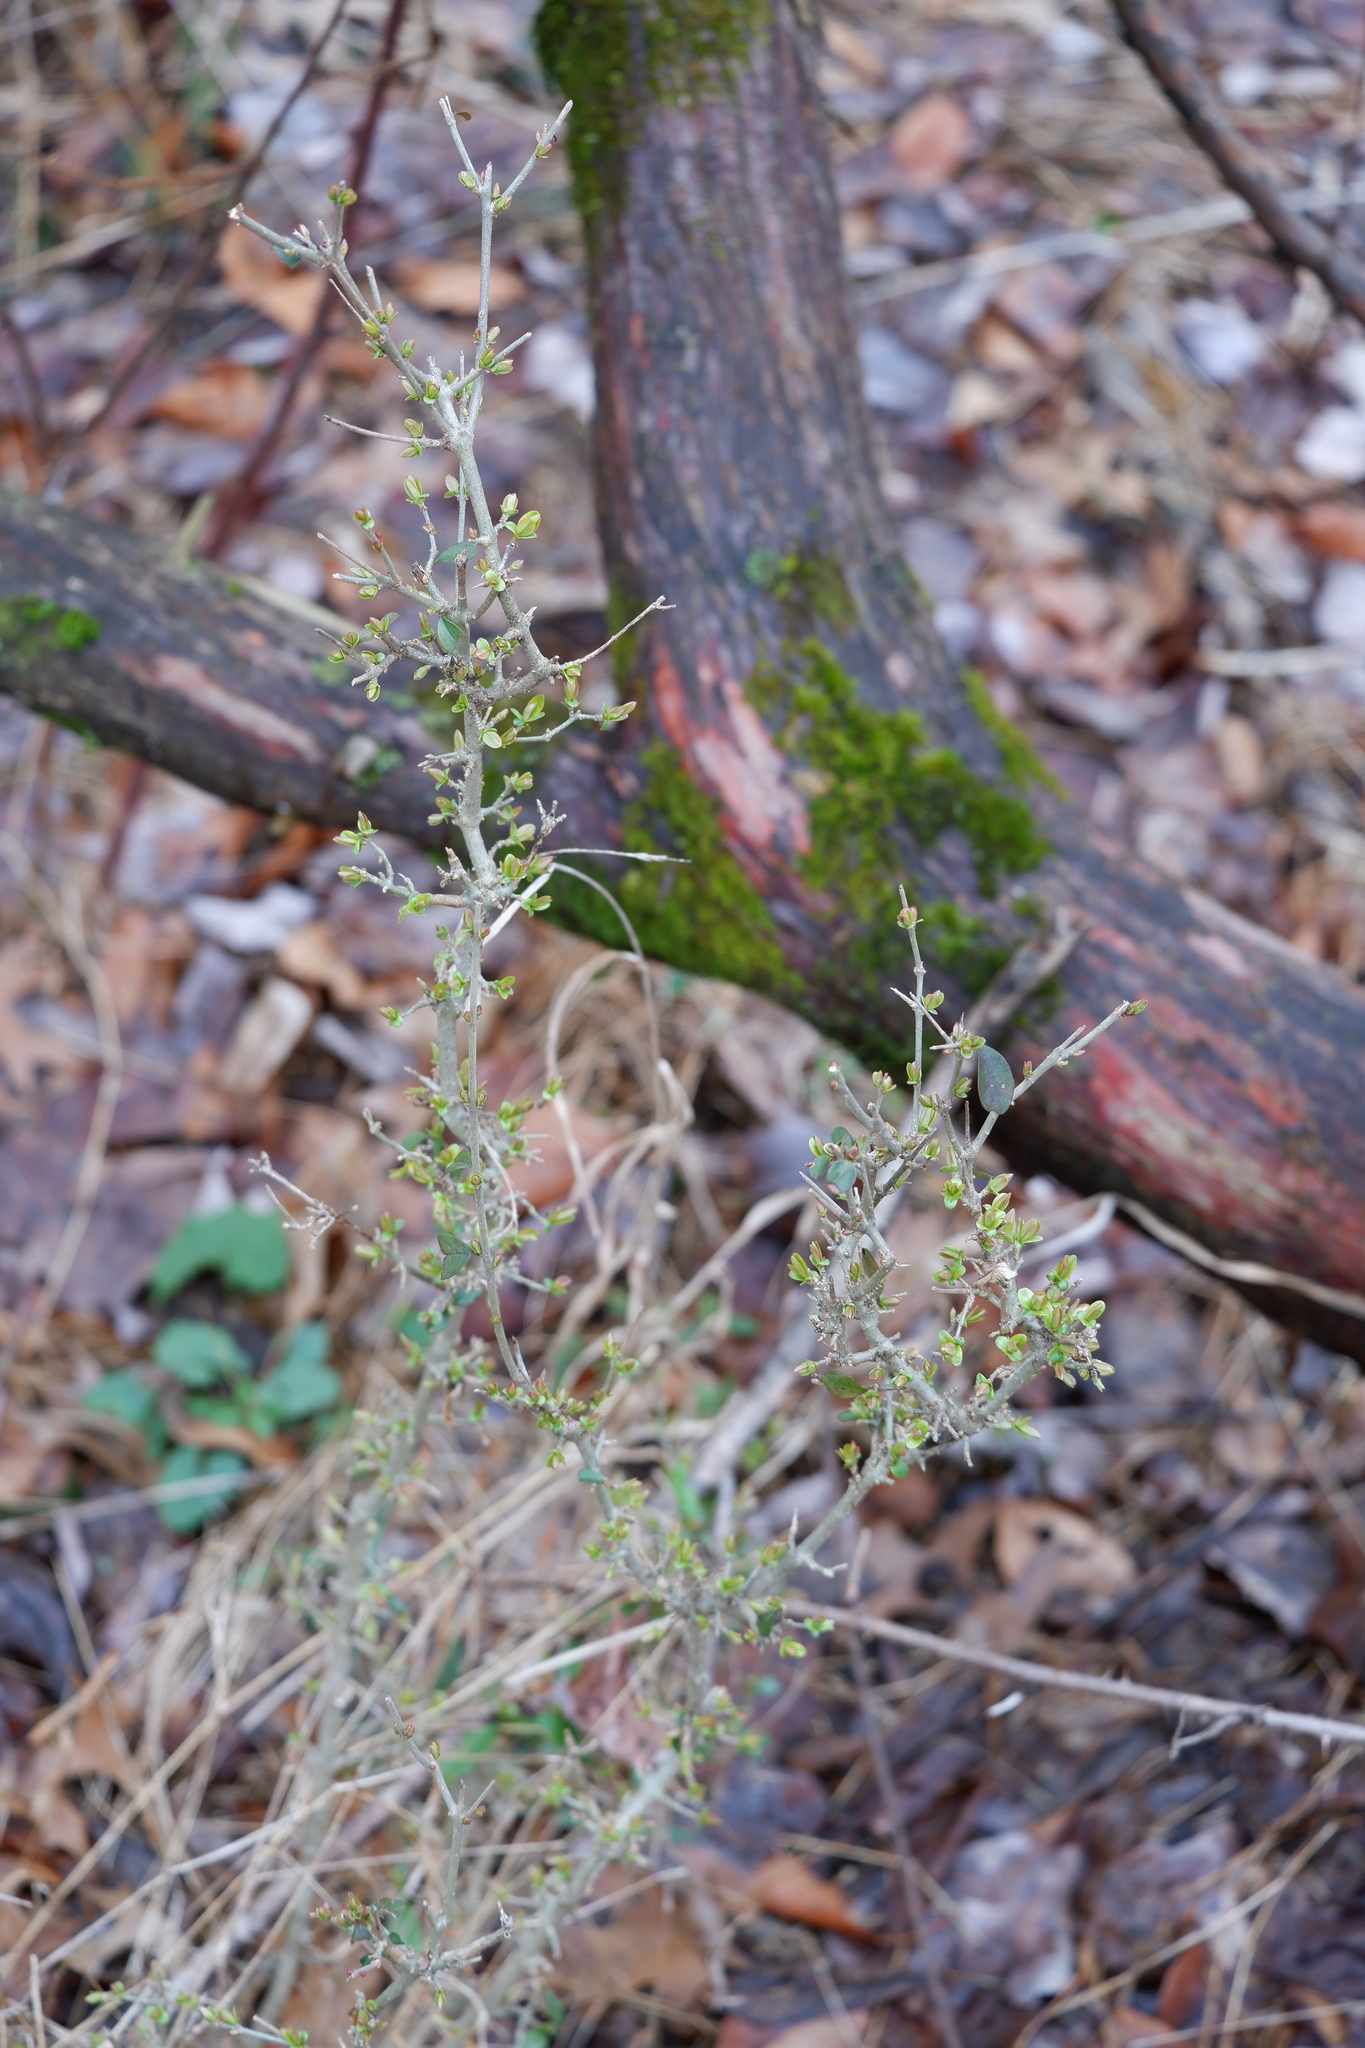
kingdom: Plantae
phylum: Tracheophyta
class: Magnoliopsida
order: Lamiales
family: Oleaceae
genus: Ligustrum
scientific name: Ligustrum obtusifolium
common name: Border privet
